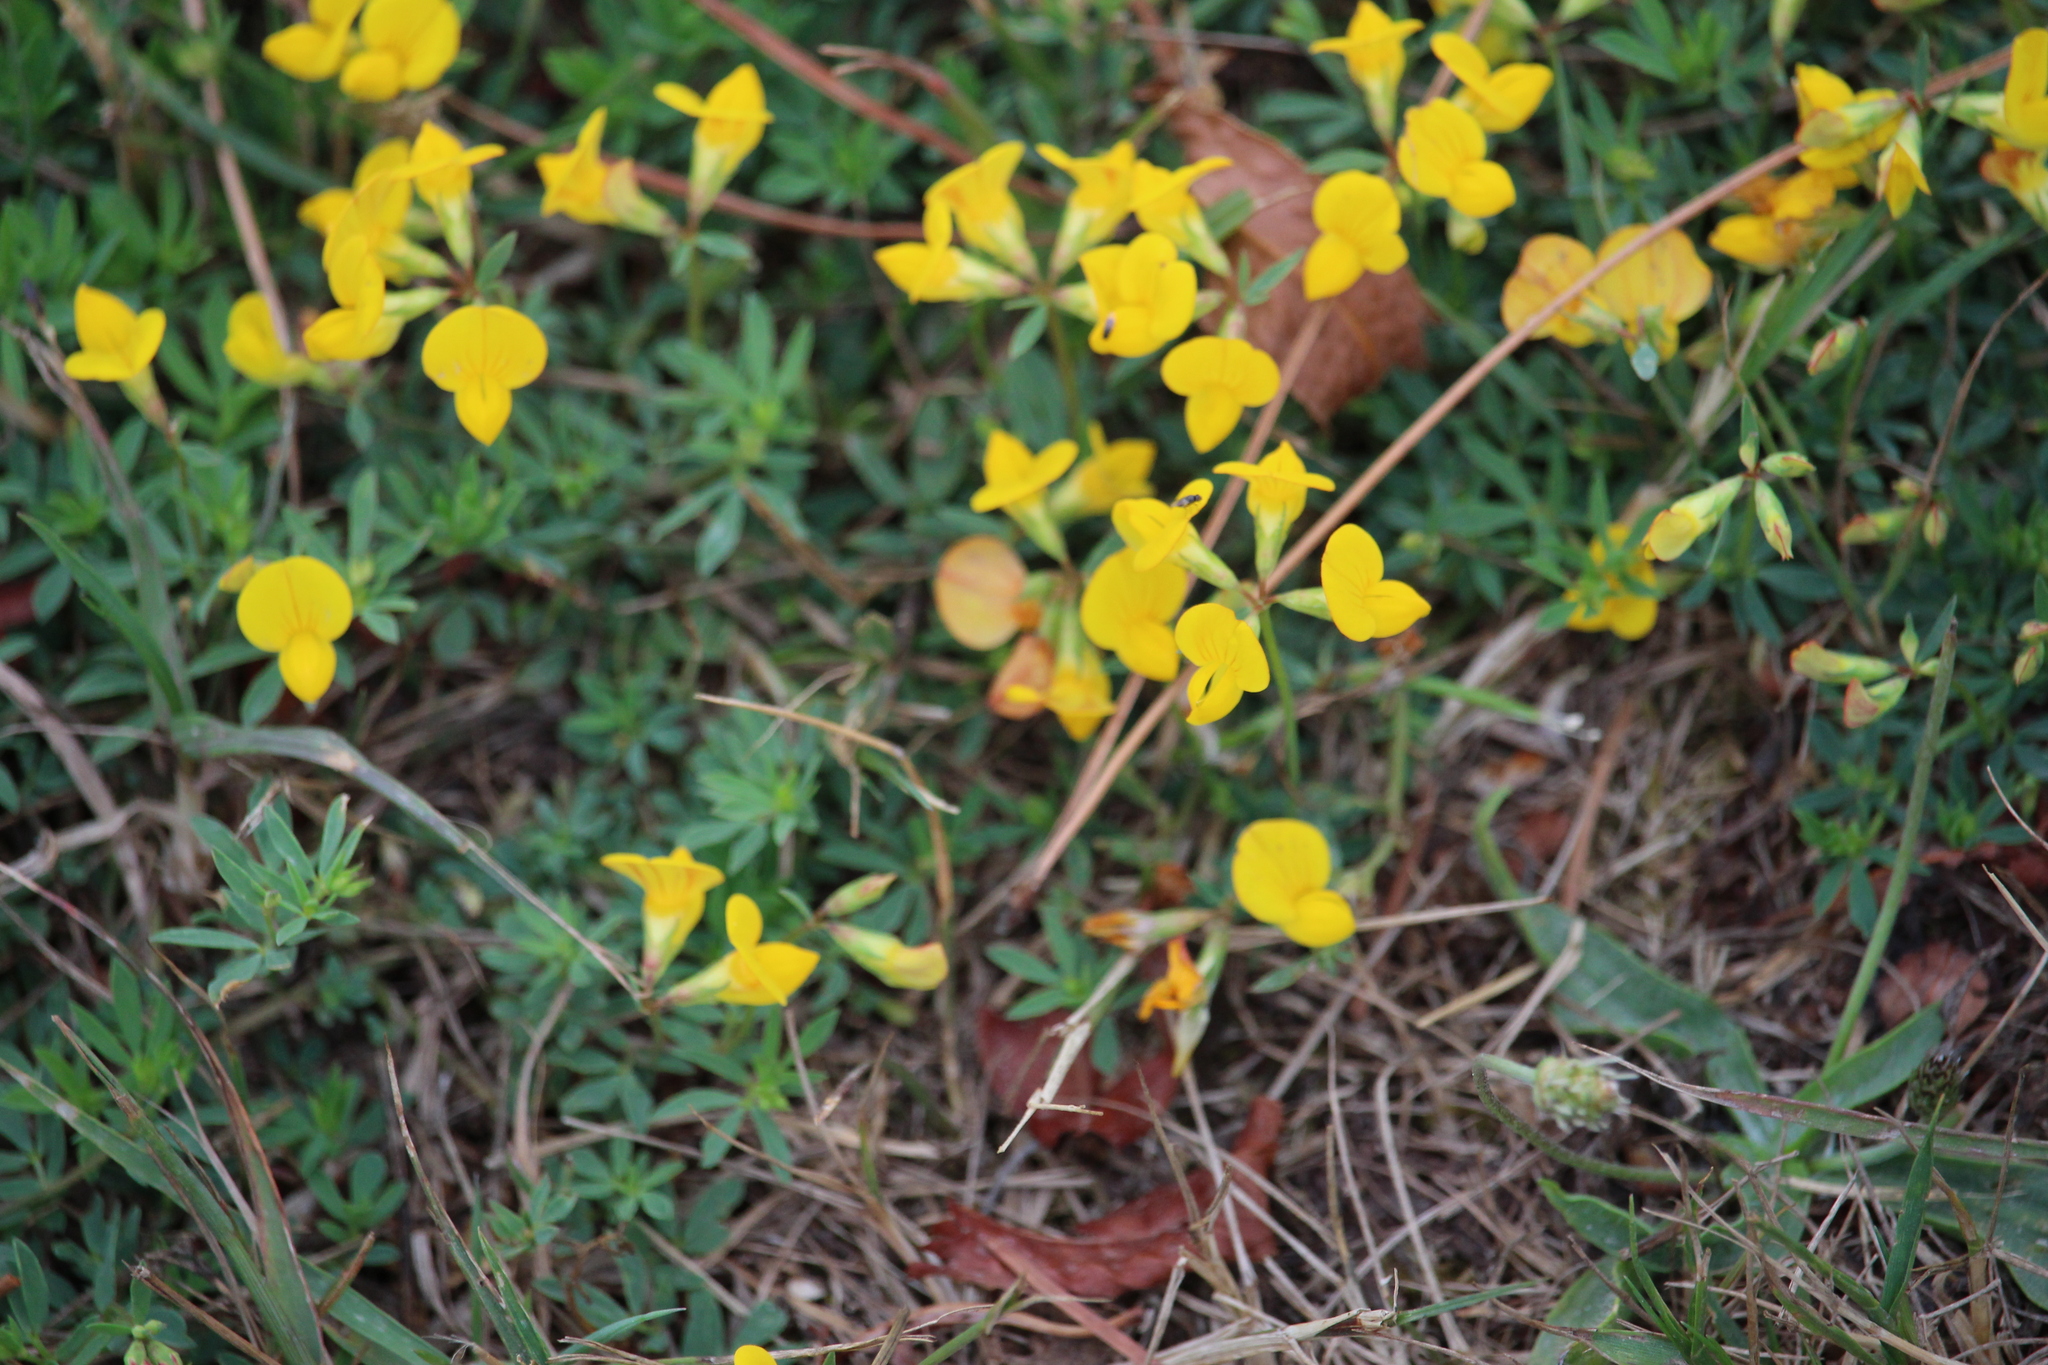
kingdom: Plantae
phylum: Tracheophyta
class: Magnoliopsida
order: Fabales
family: Fabaceae
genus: Lotus
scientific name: Lotus pedunculatus
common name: Greater birdsfoot-trefoil
